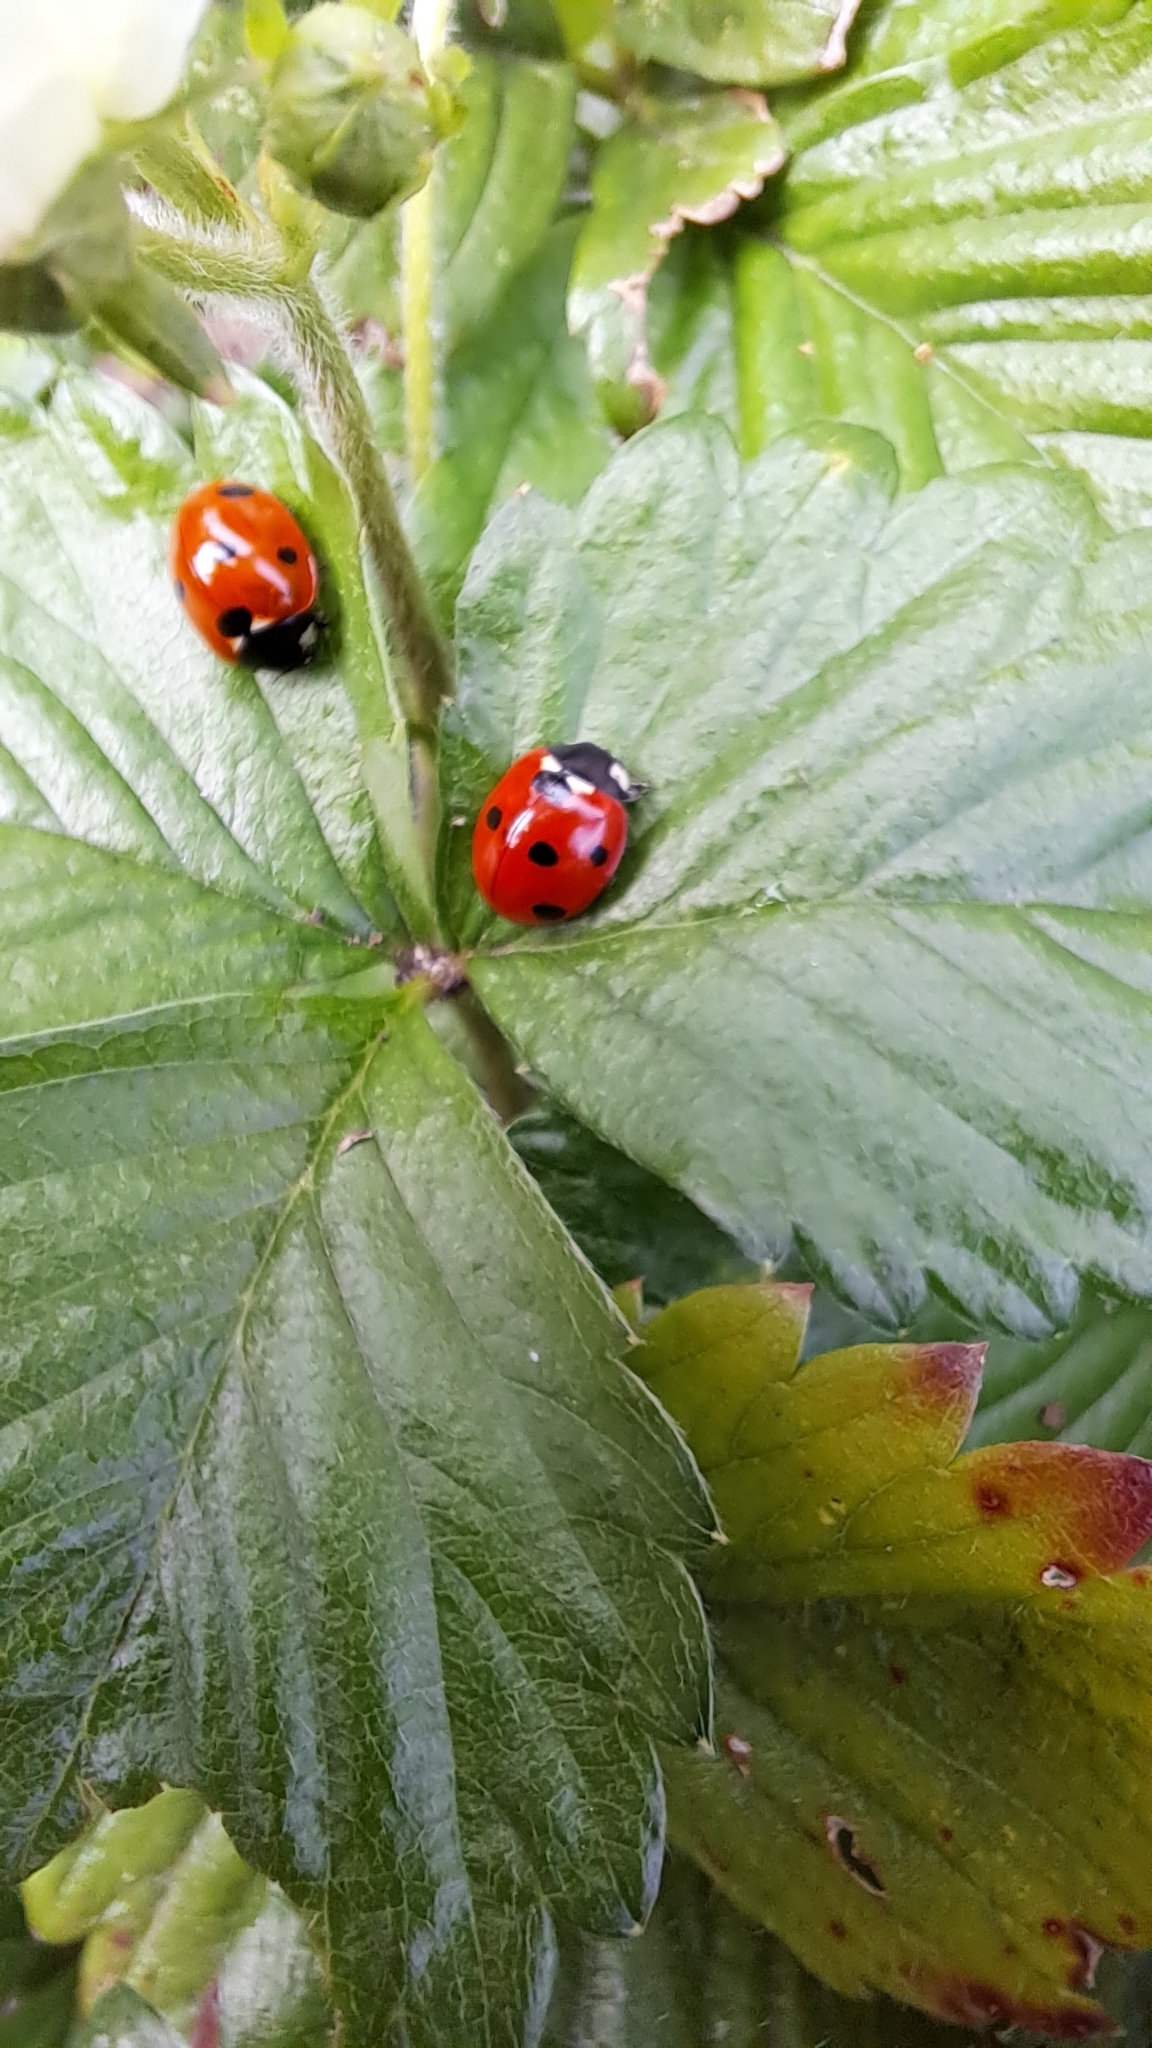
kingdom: Animalia
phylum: Arthropoda
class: Insecta
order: Coleoptera
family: Coccinellidae
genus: Coccinella
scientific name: Coccinella septempunctata
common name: Sevenspotted lady beetle
